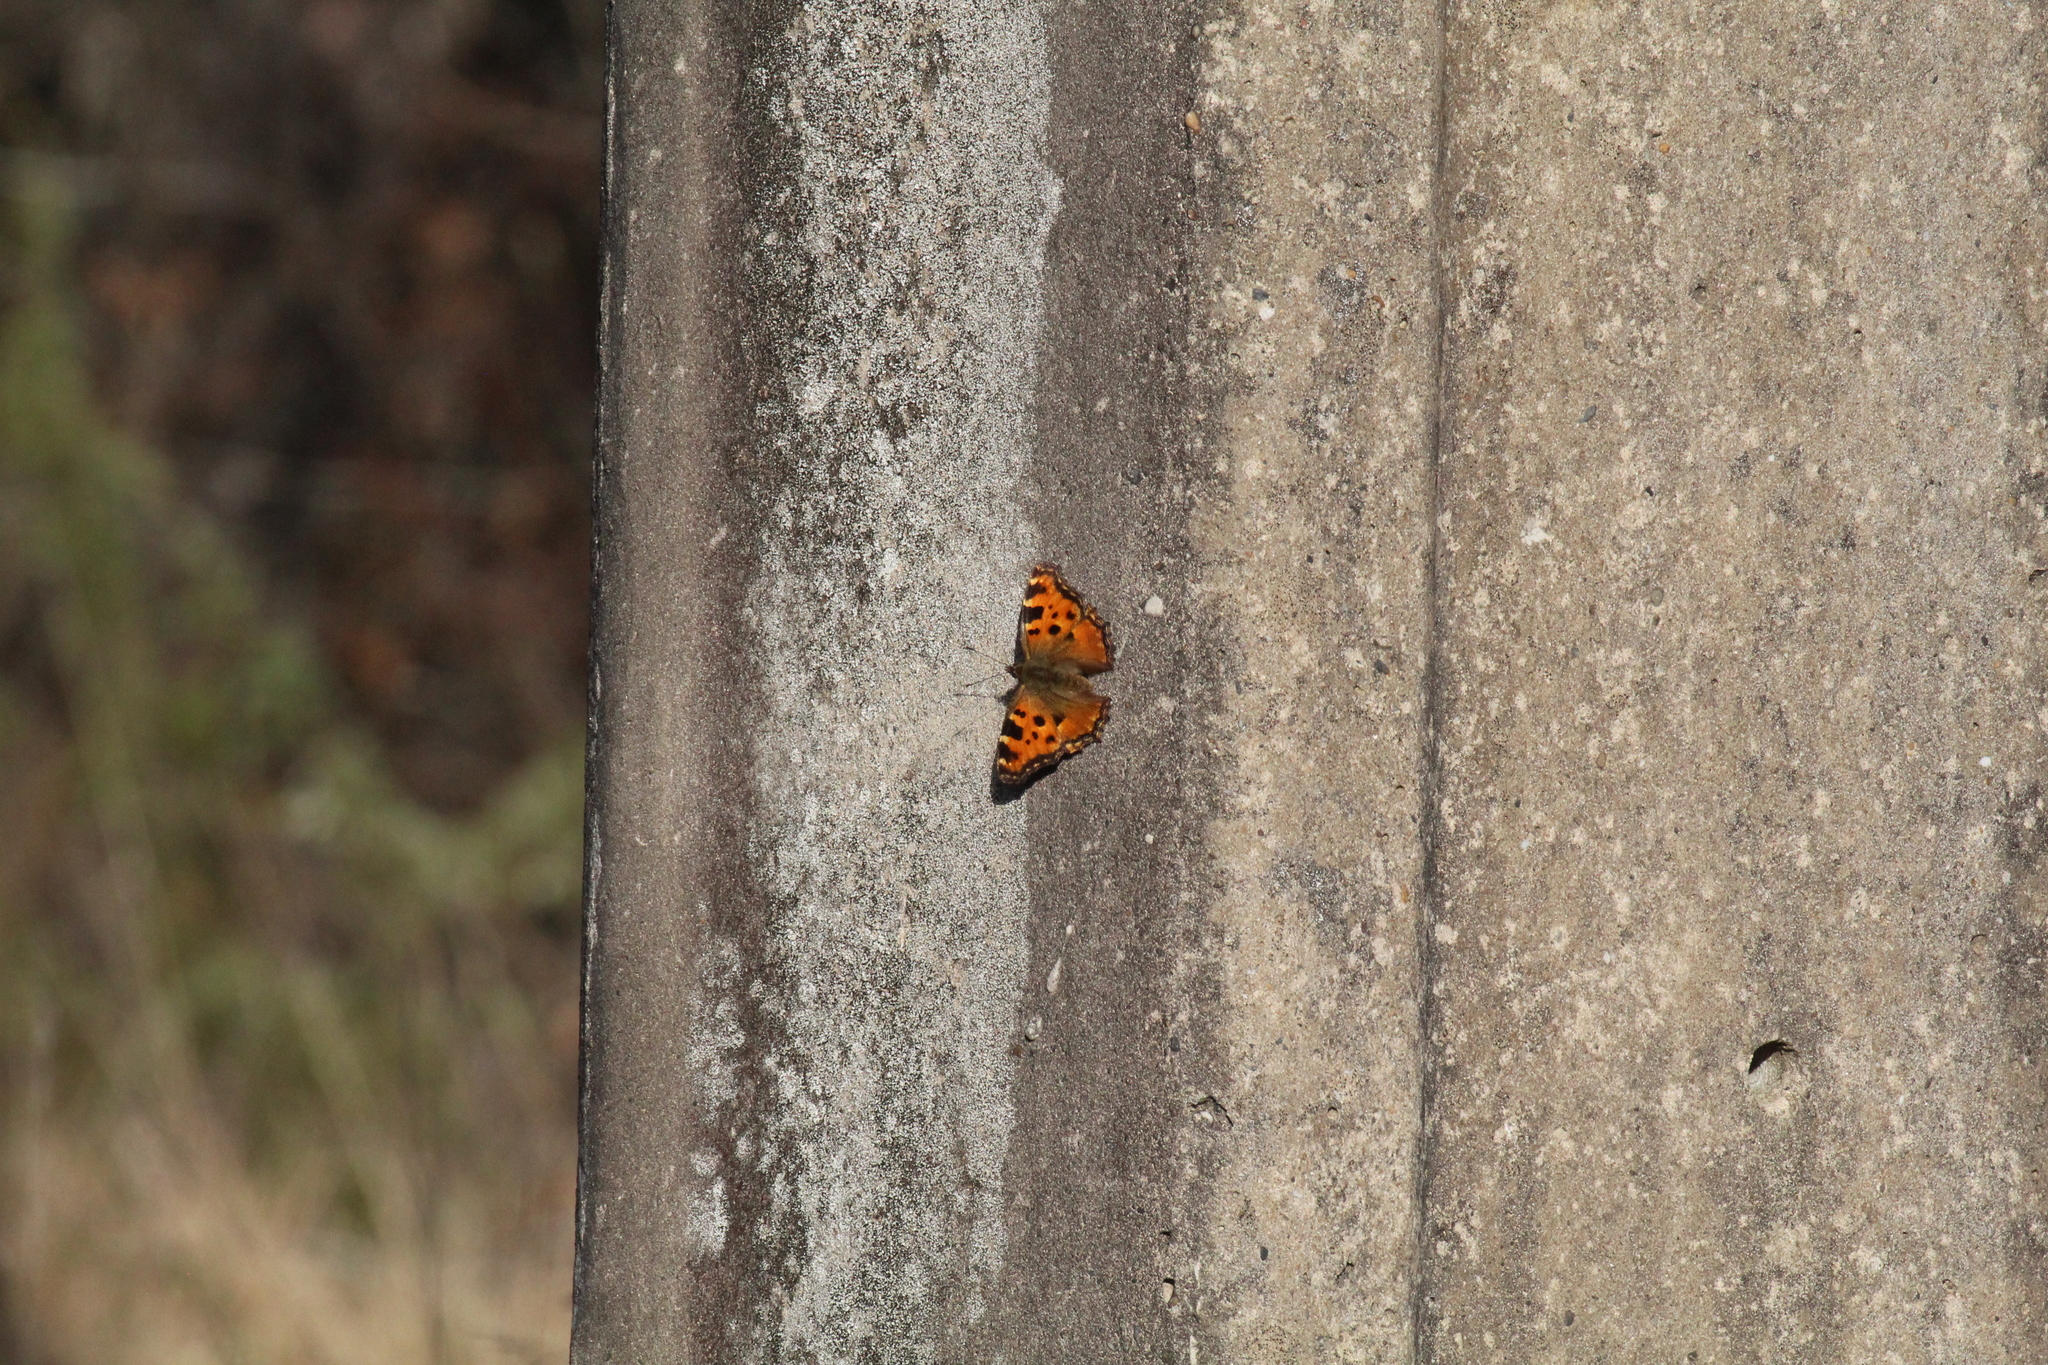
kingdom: Animalia
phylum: Arthropoda
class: Insecta
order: Lepidoptera
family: Nymphalidae
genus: Nymphalis
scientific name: Nymphalis polychloros
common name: Large tortoiseshell
